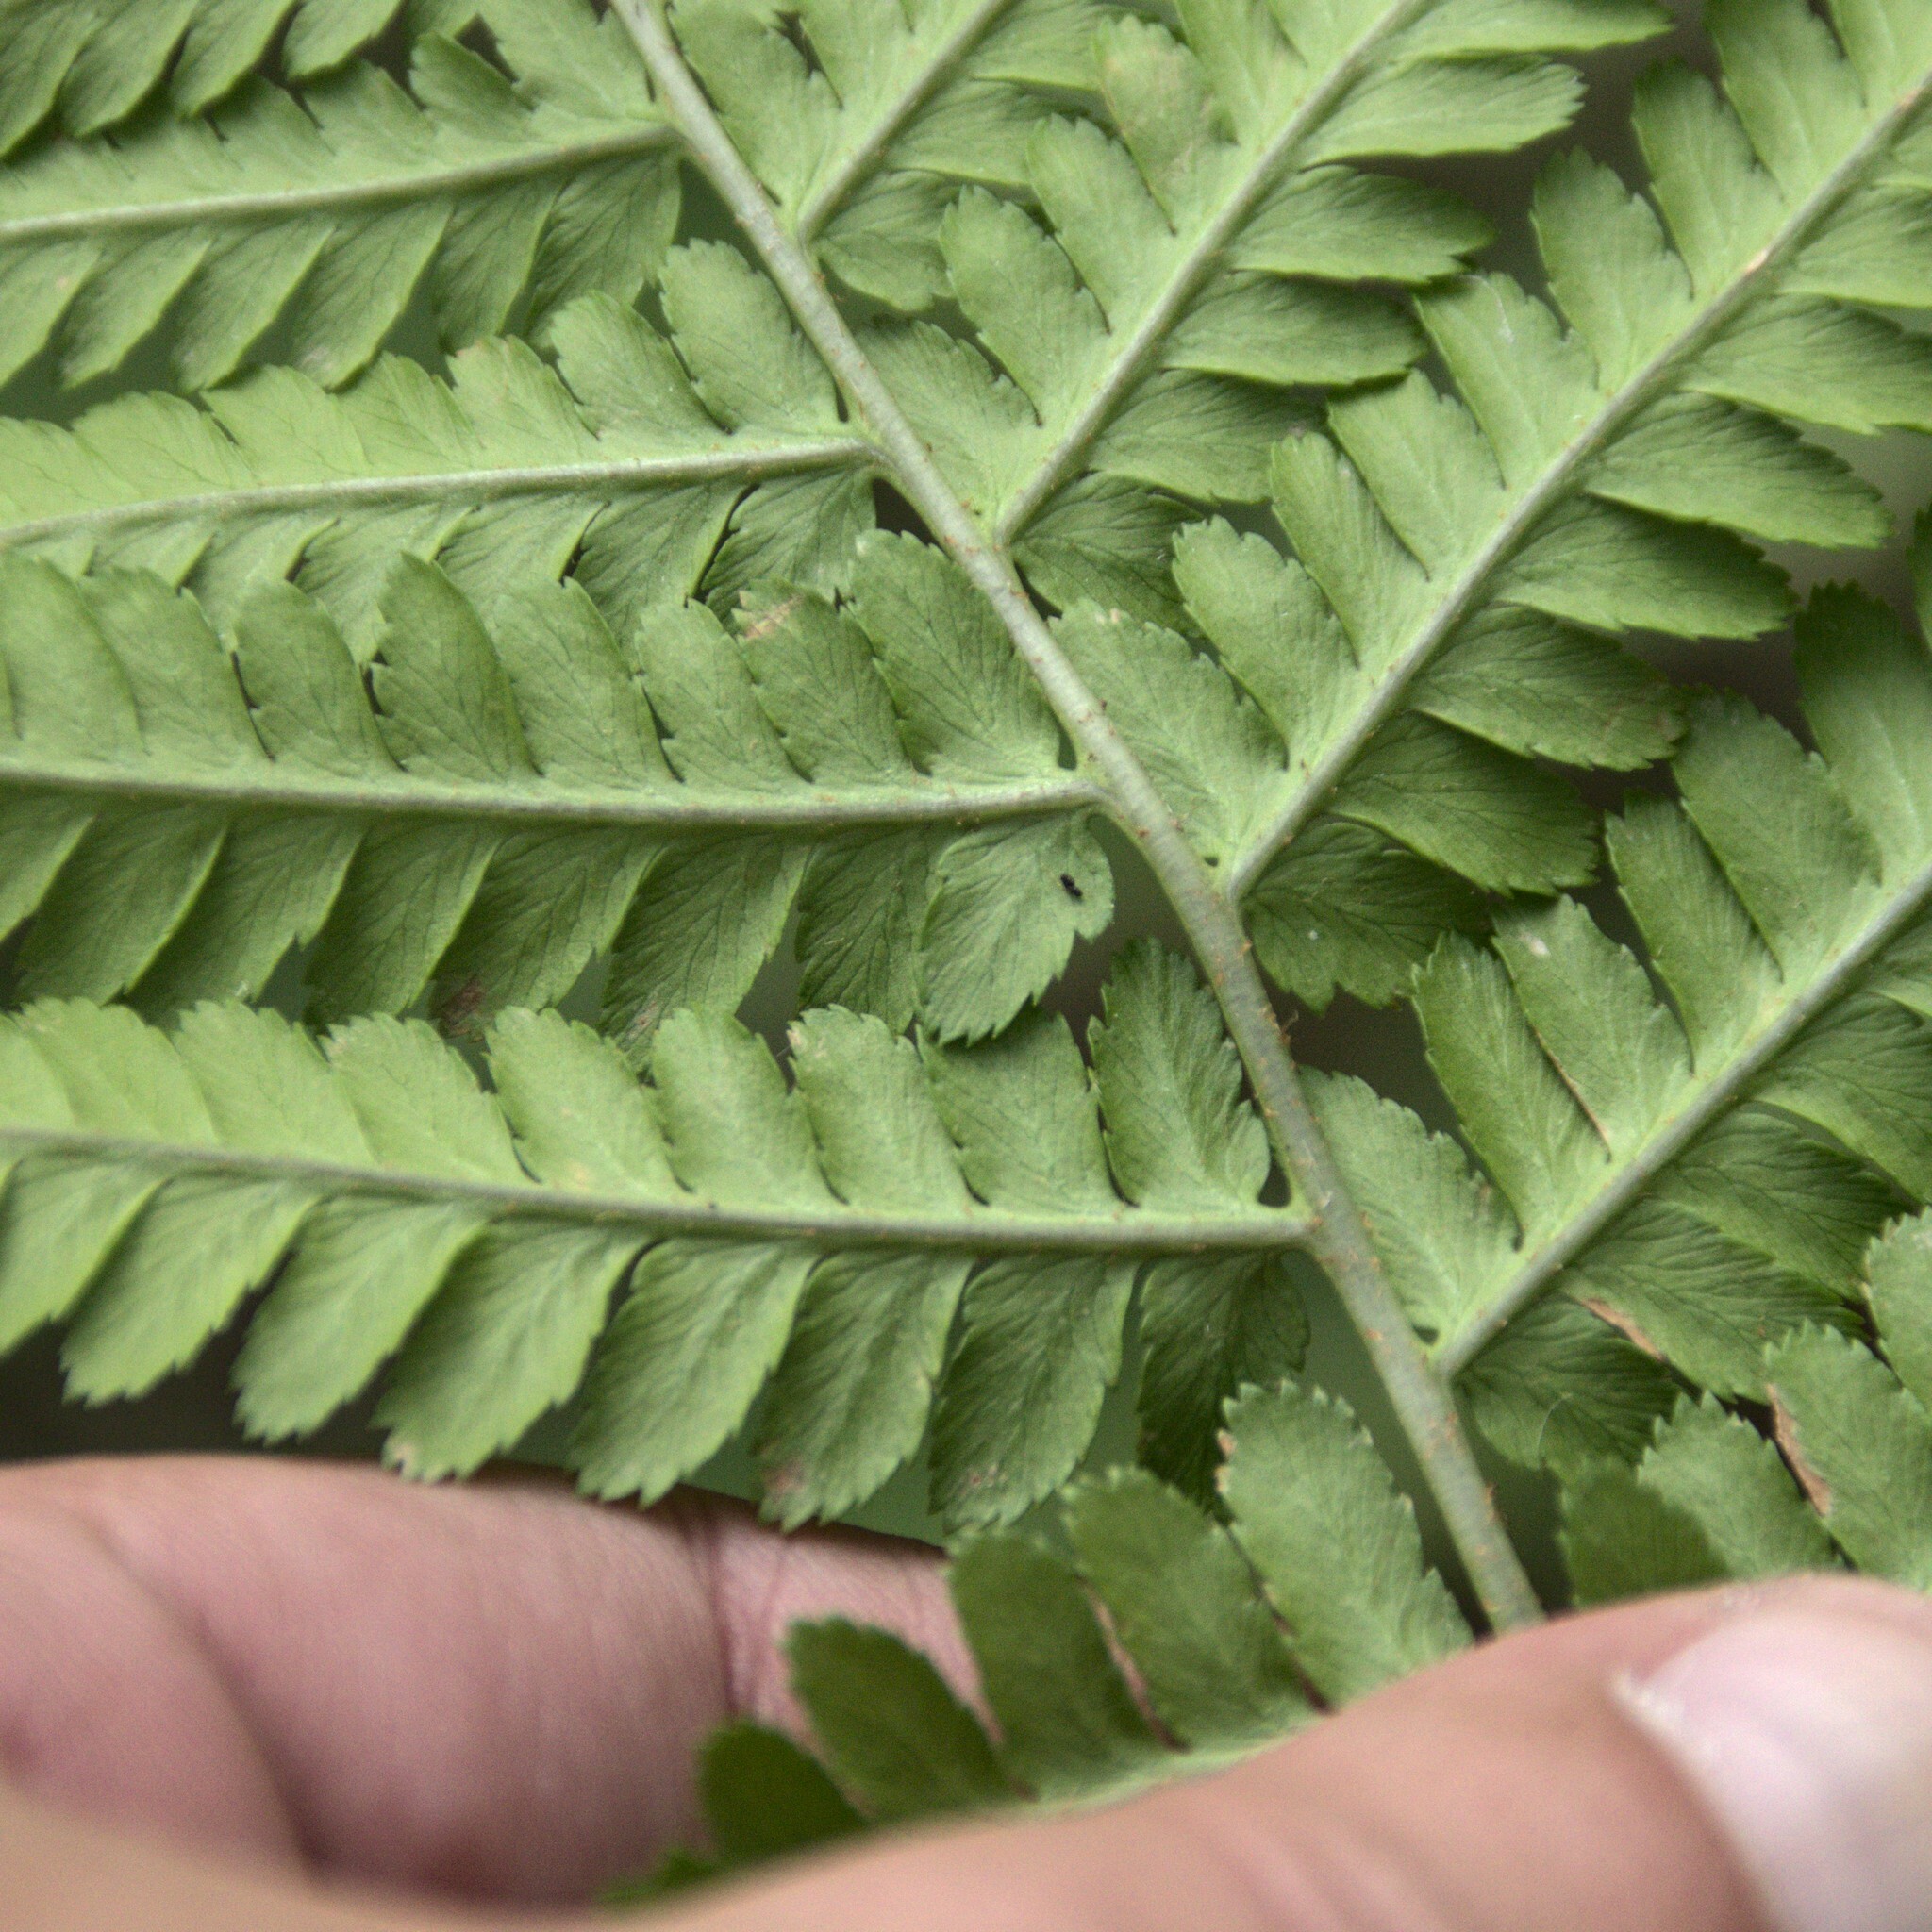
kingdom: Plantae
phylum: Tracheophyta
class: Polypodiopsida
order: Polypodiales
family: Dryopteridaceae
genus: Dryopteris
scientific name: Dryopteris filix-mas
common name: Male fern
